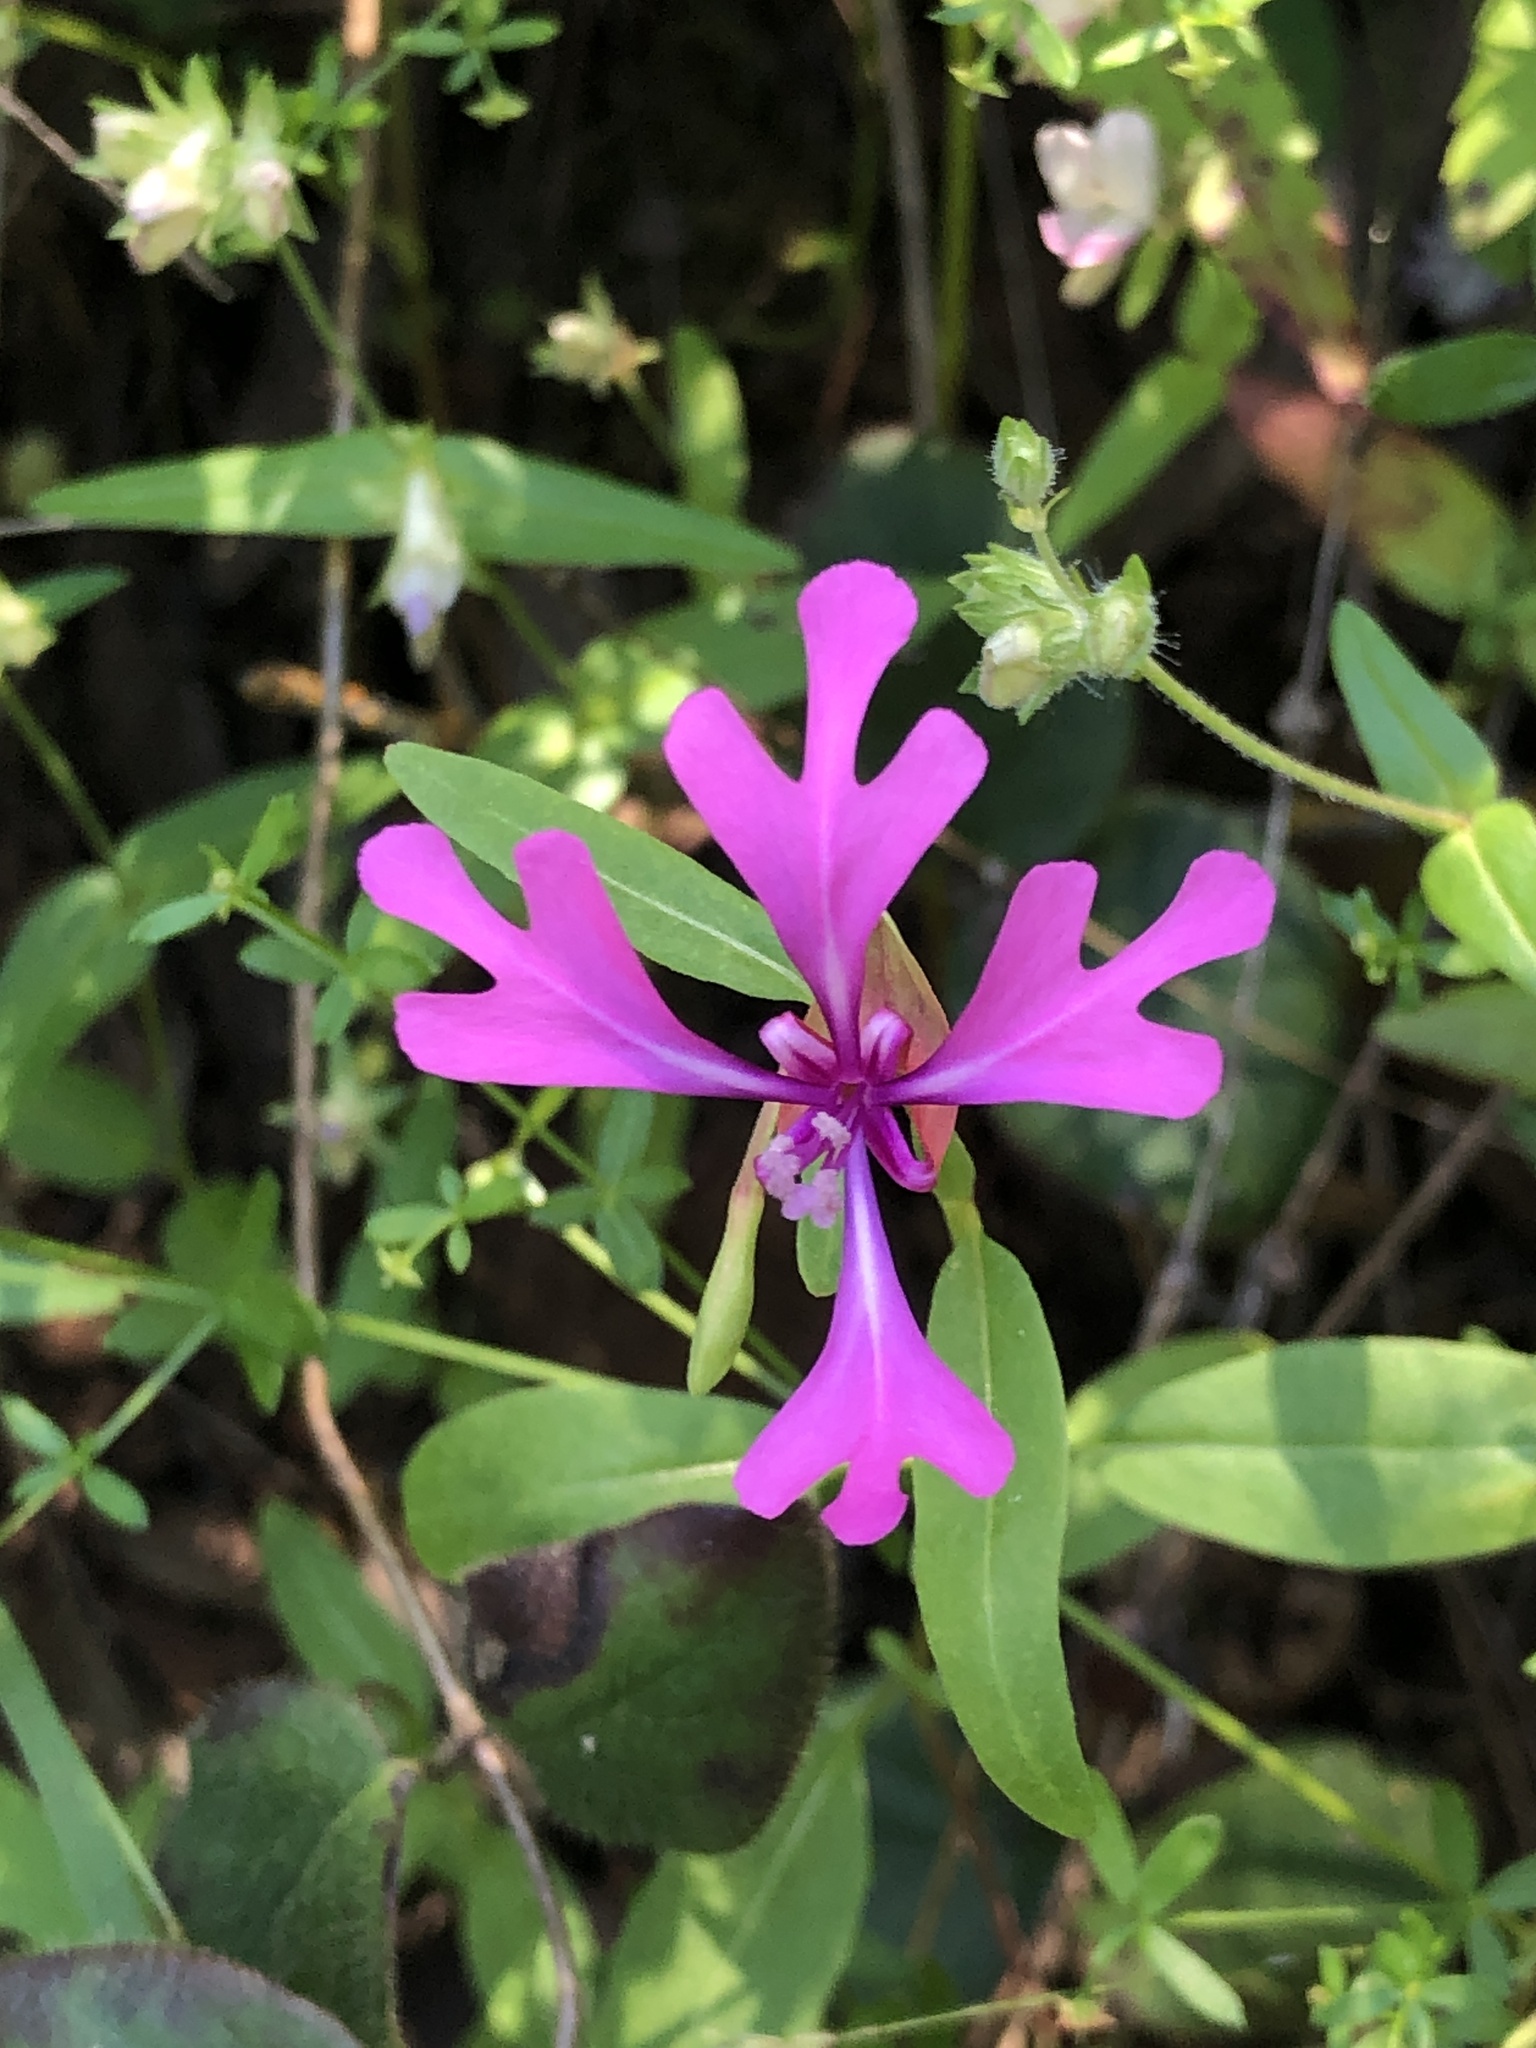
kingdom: Plantae
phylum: Tracheophyta
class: Magnoliopsida
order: Myrtales
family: Onagraceae
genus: Clarkia
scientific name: Clarkia concinna
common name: Red-ribbons
